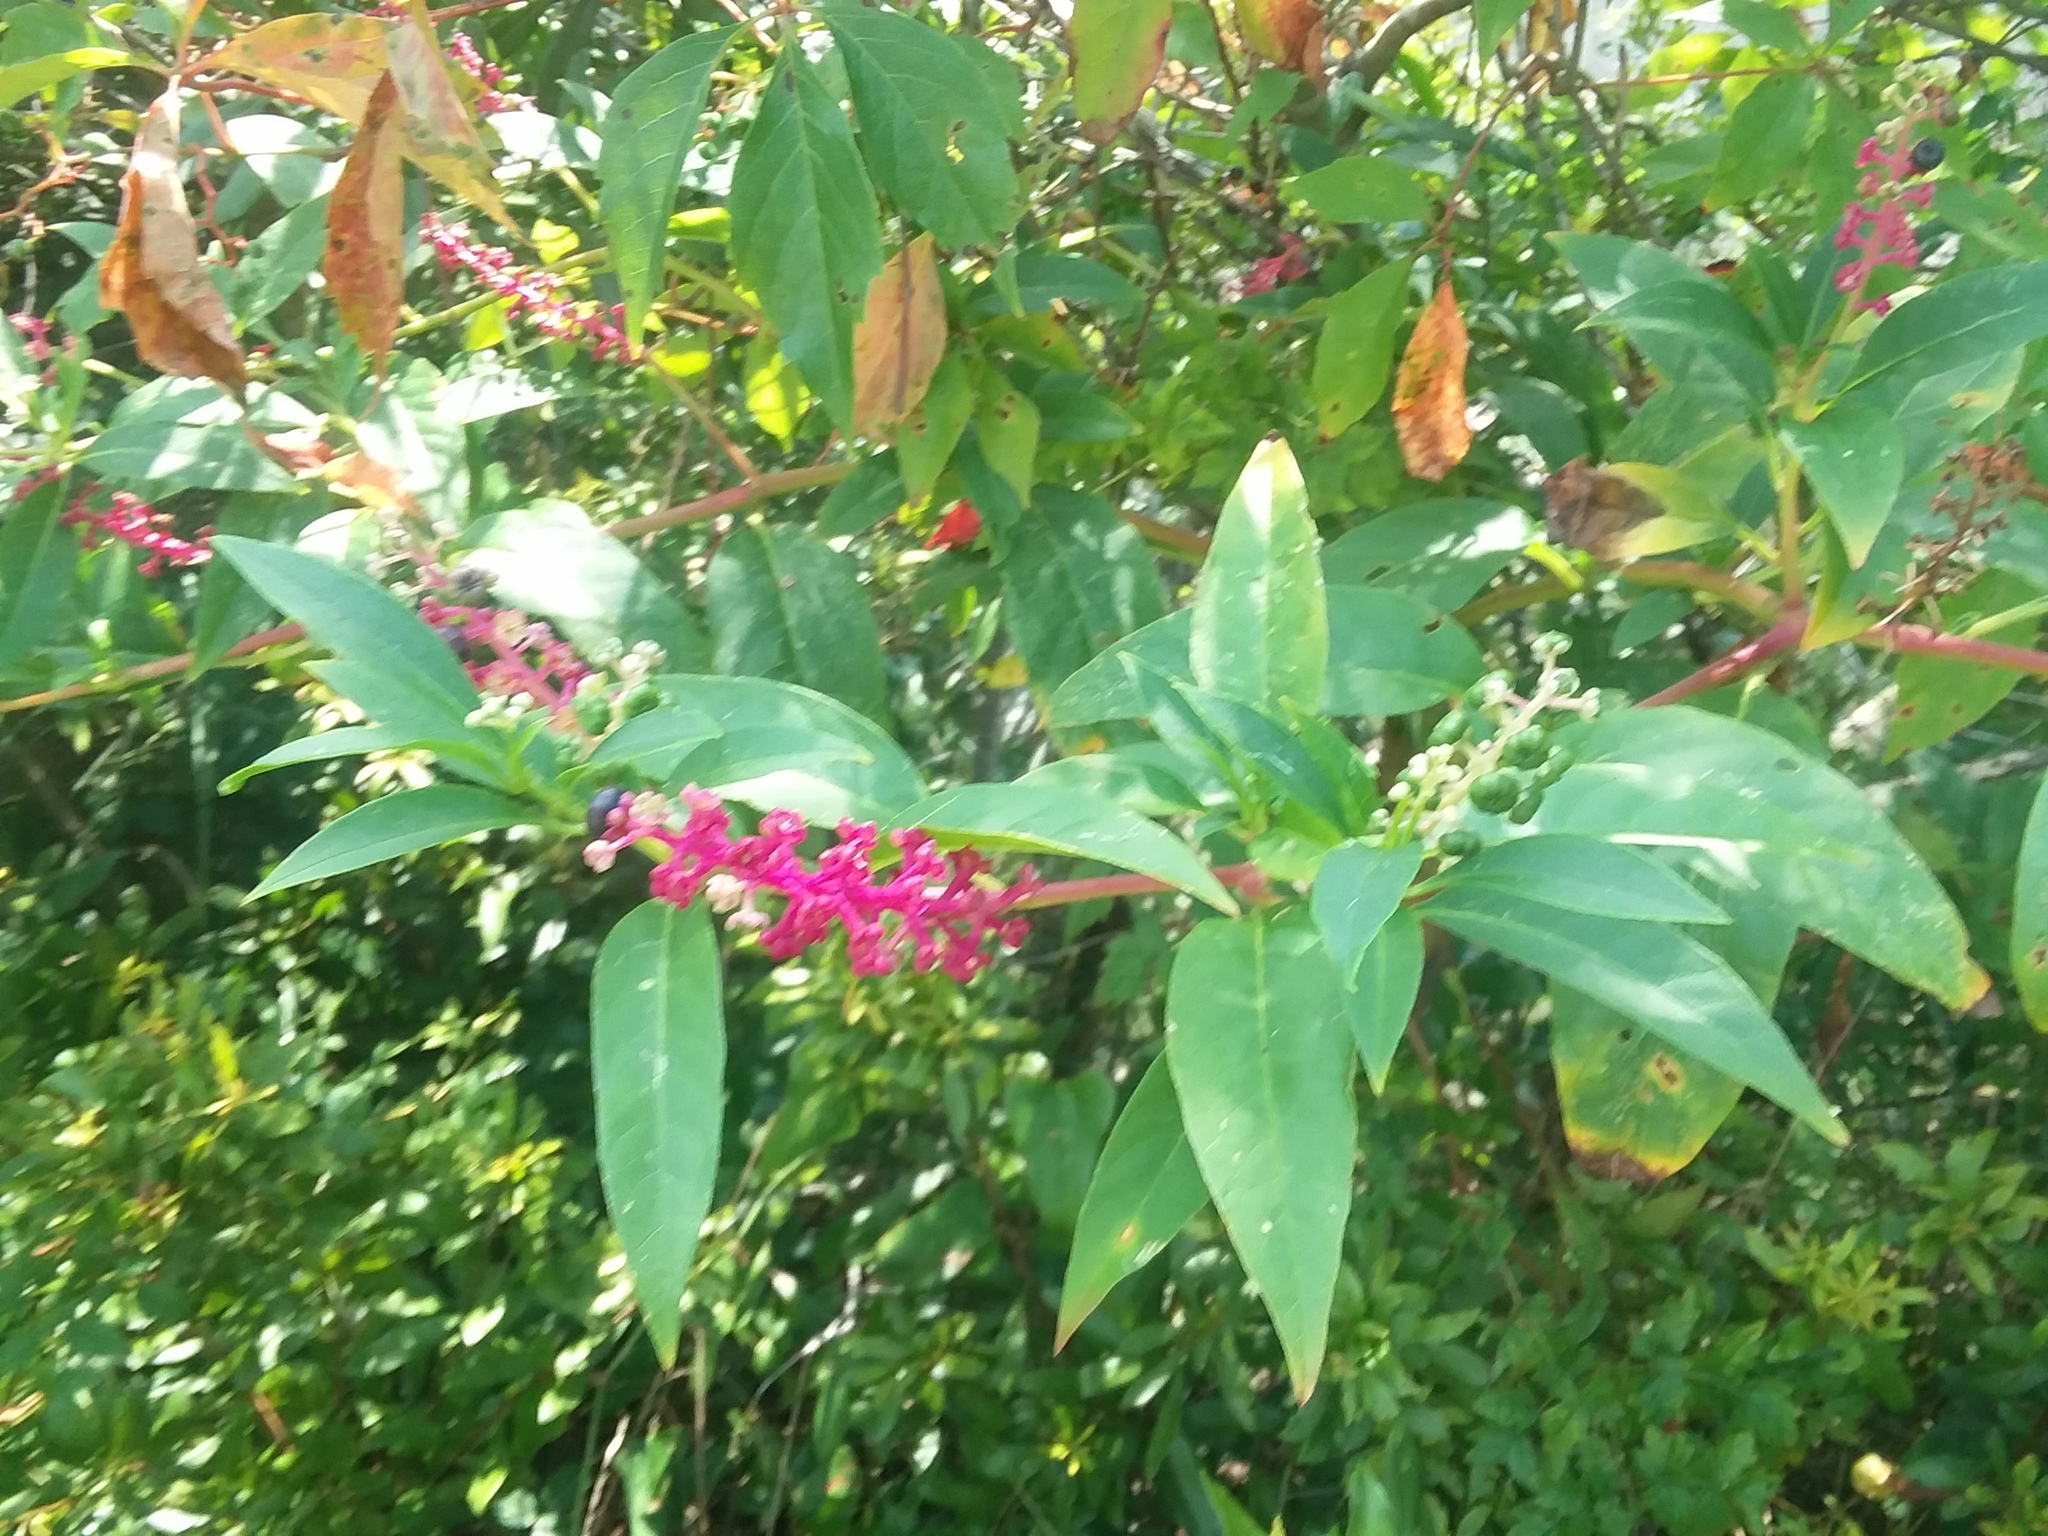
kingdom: Plantae
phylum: Tracheophyta
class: Magnoliopsida
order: Caryophyllales
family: Phytolaccaceae
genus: Phytolacca
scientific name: Phytolacca americana
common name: American pokeweed
